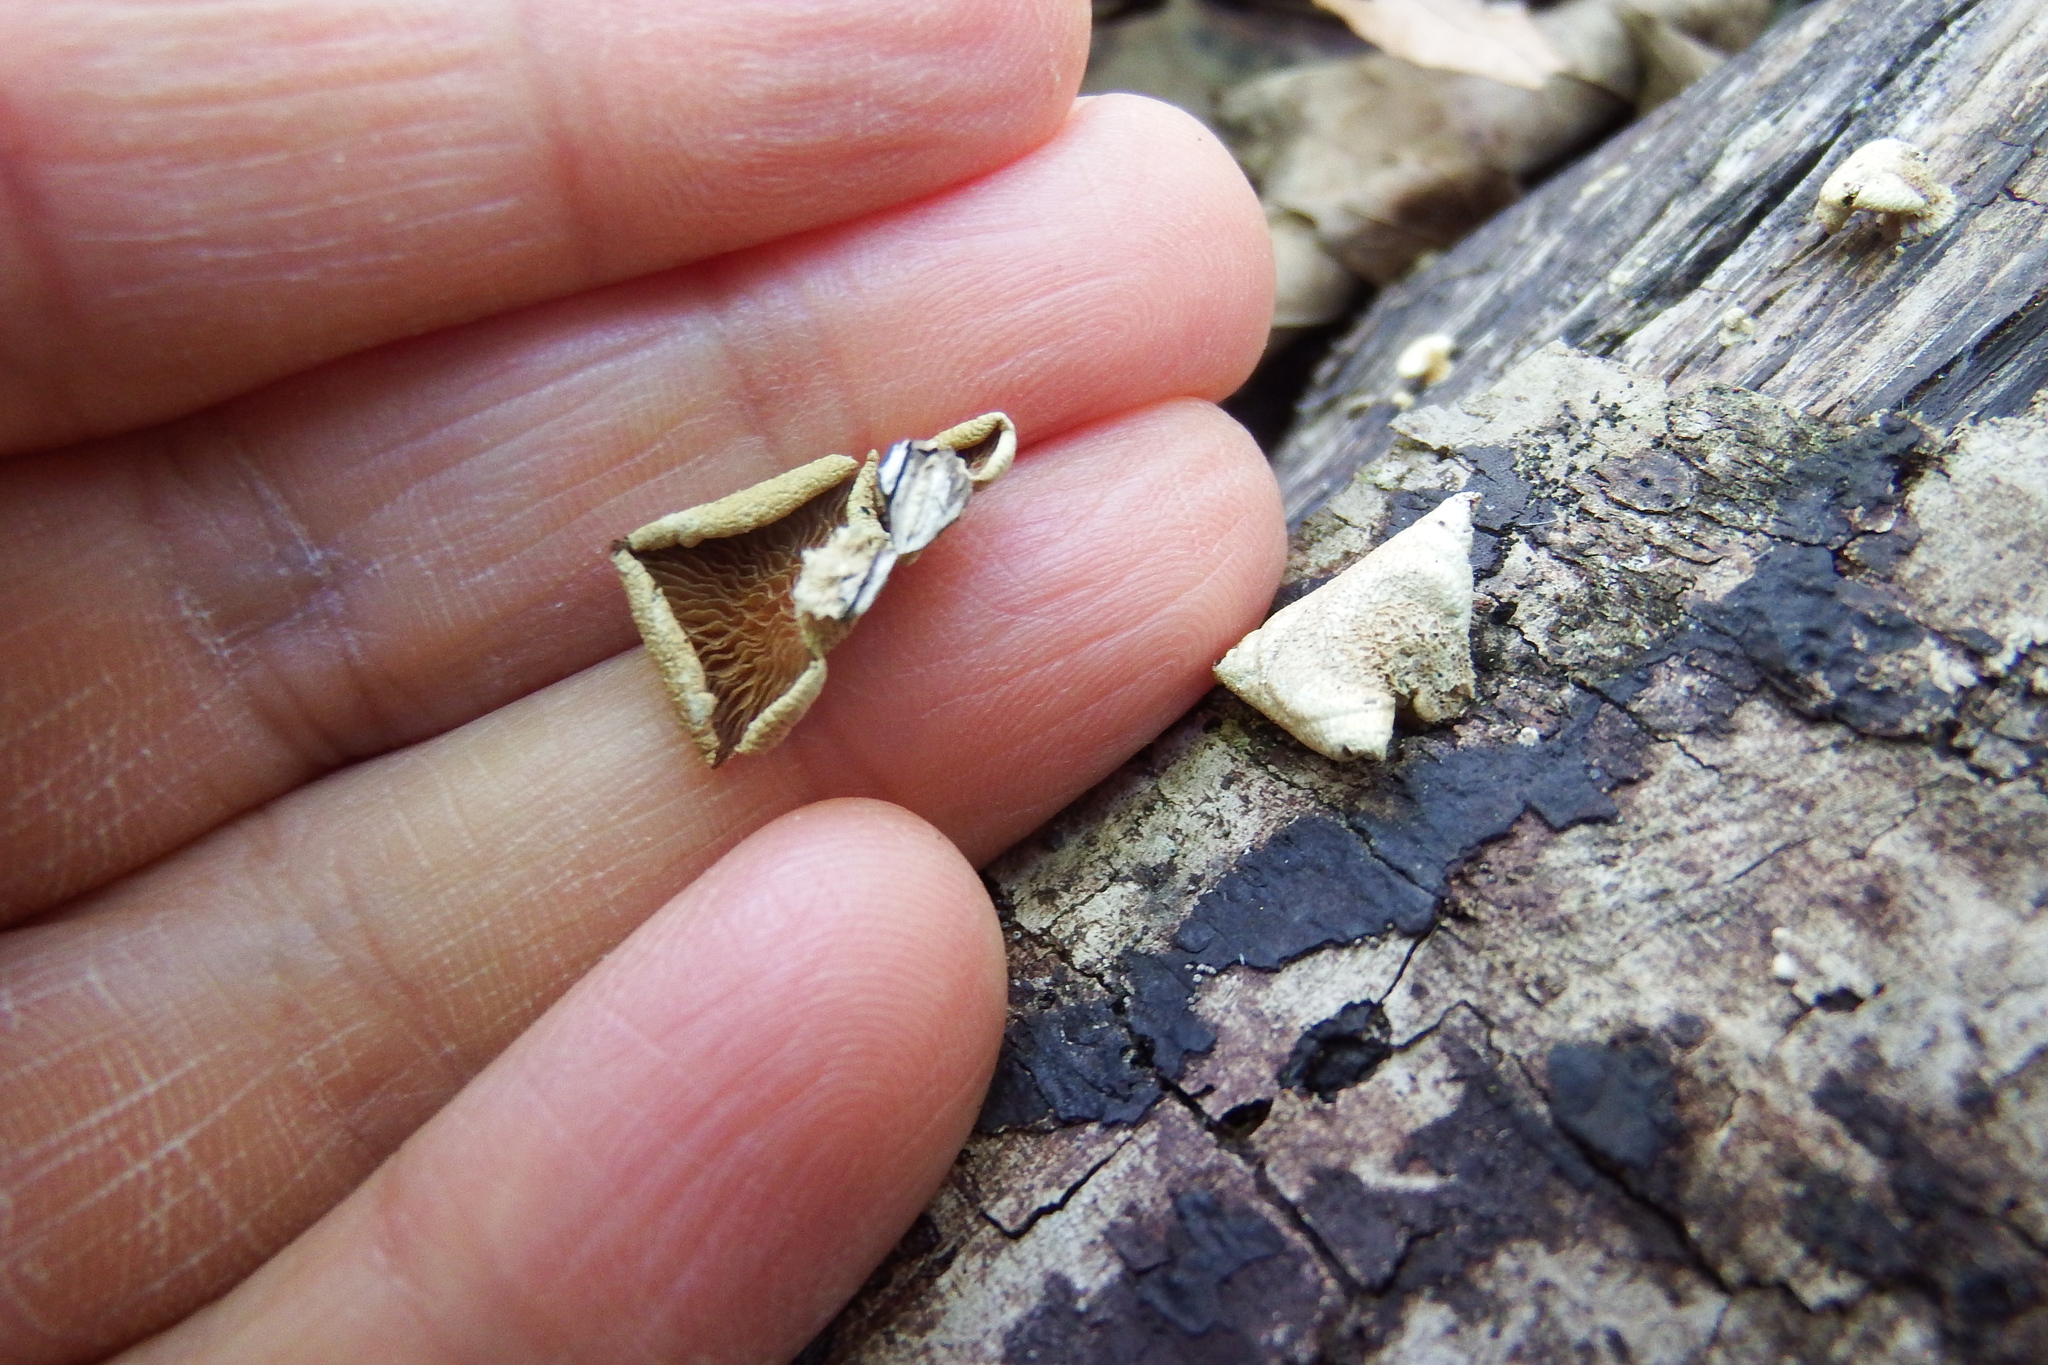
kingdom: Fungi
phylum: Basidiomycota
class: Agaricomycetes
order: Agaricales
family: Mycenaceae
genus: Panellus
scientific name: Panellus stipticus
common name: Bitter oysterling
